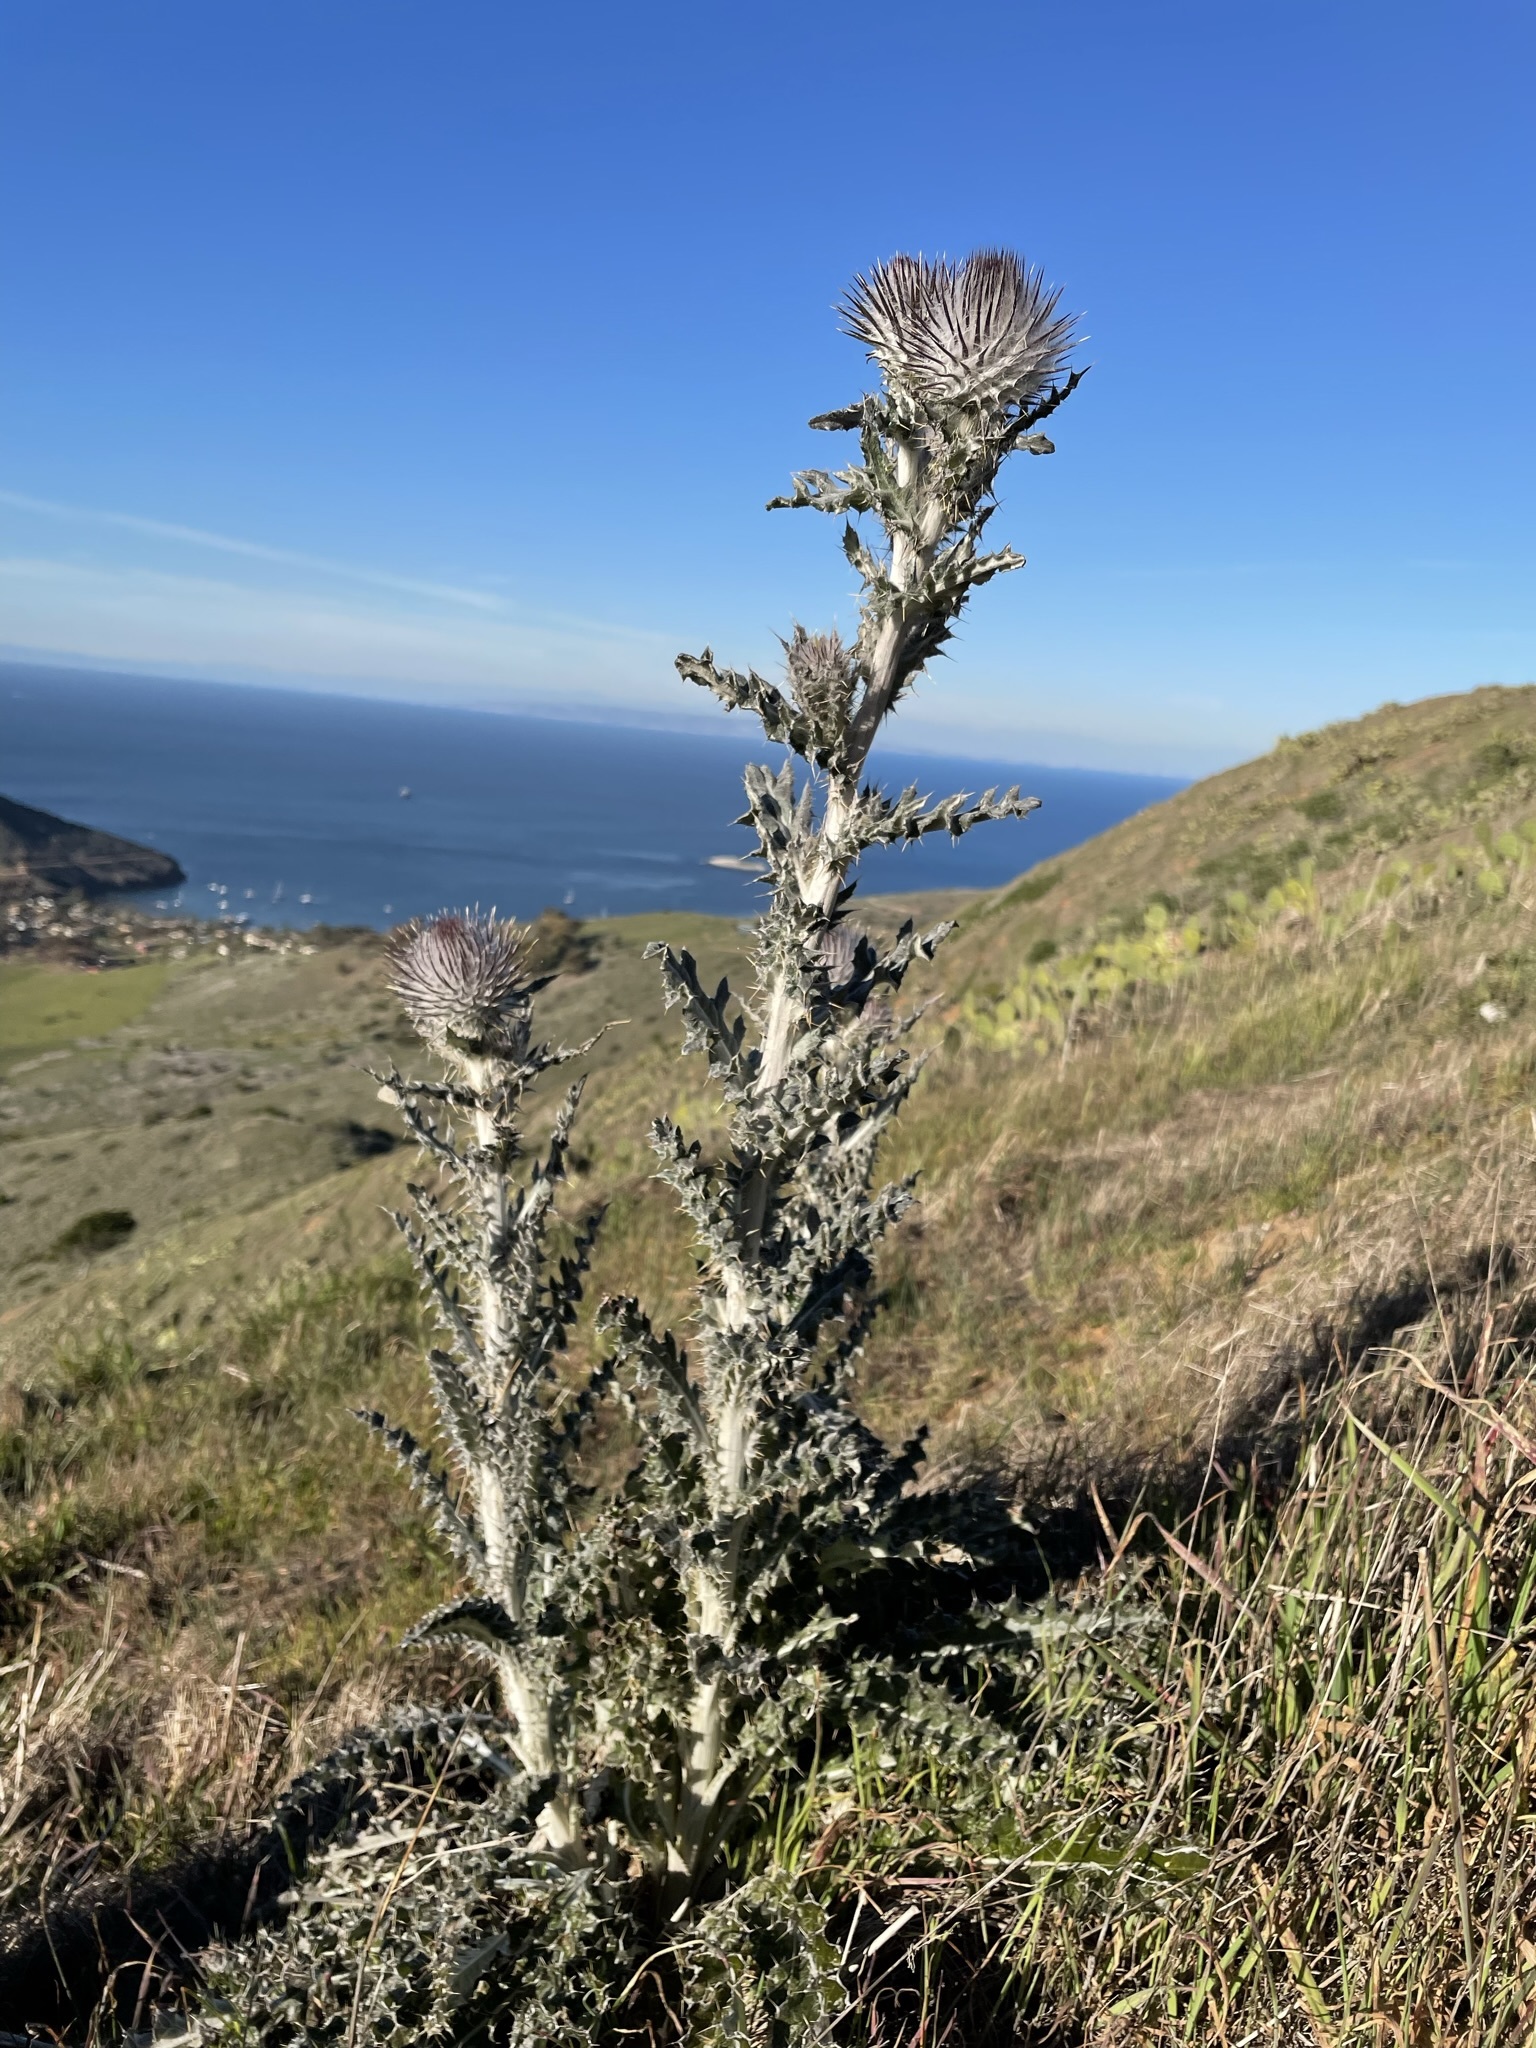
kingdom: Plantae
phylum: Tracheophyta
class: Magnoliopsida
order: Asterales
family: Asteraceae
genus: Cirsium
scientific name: Cirsium occidentale
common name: Western thistle
